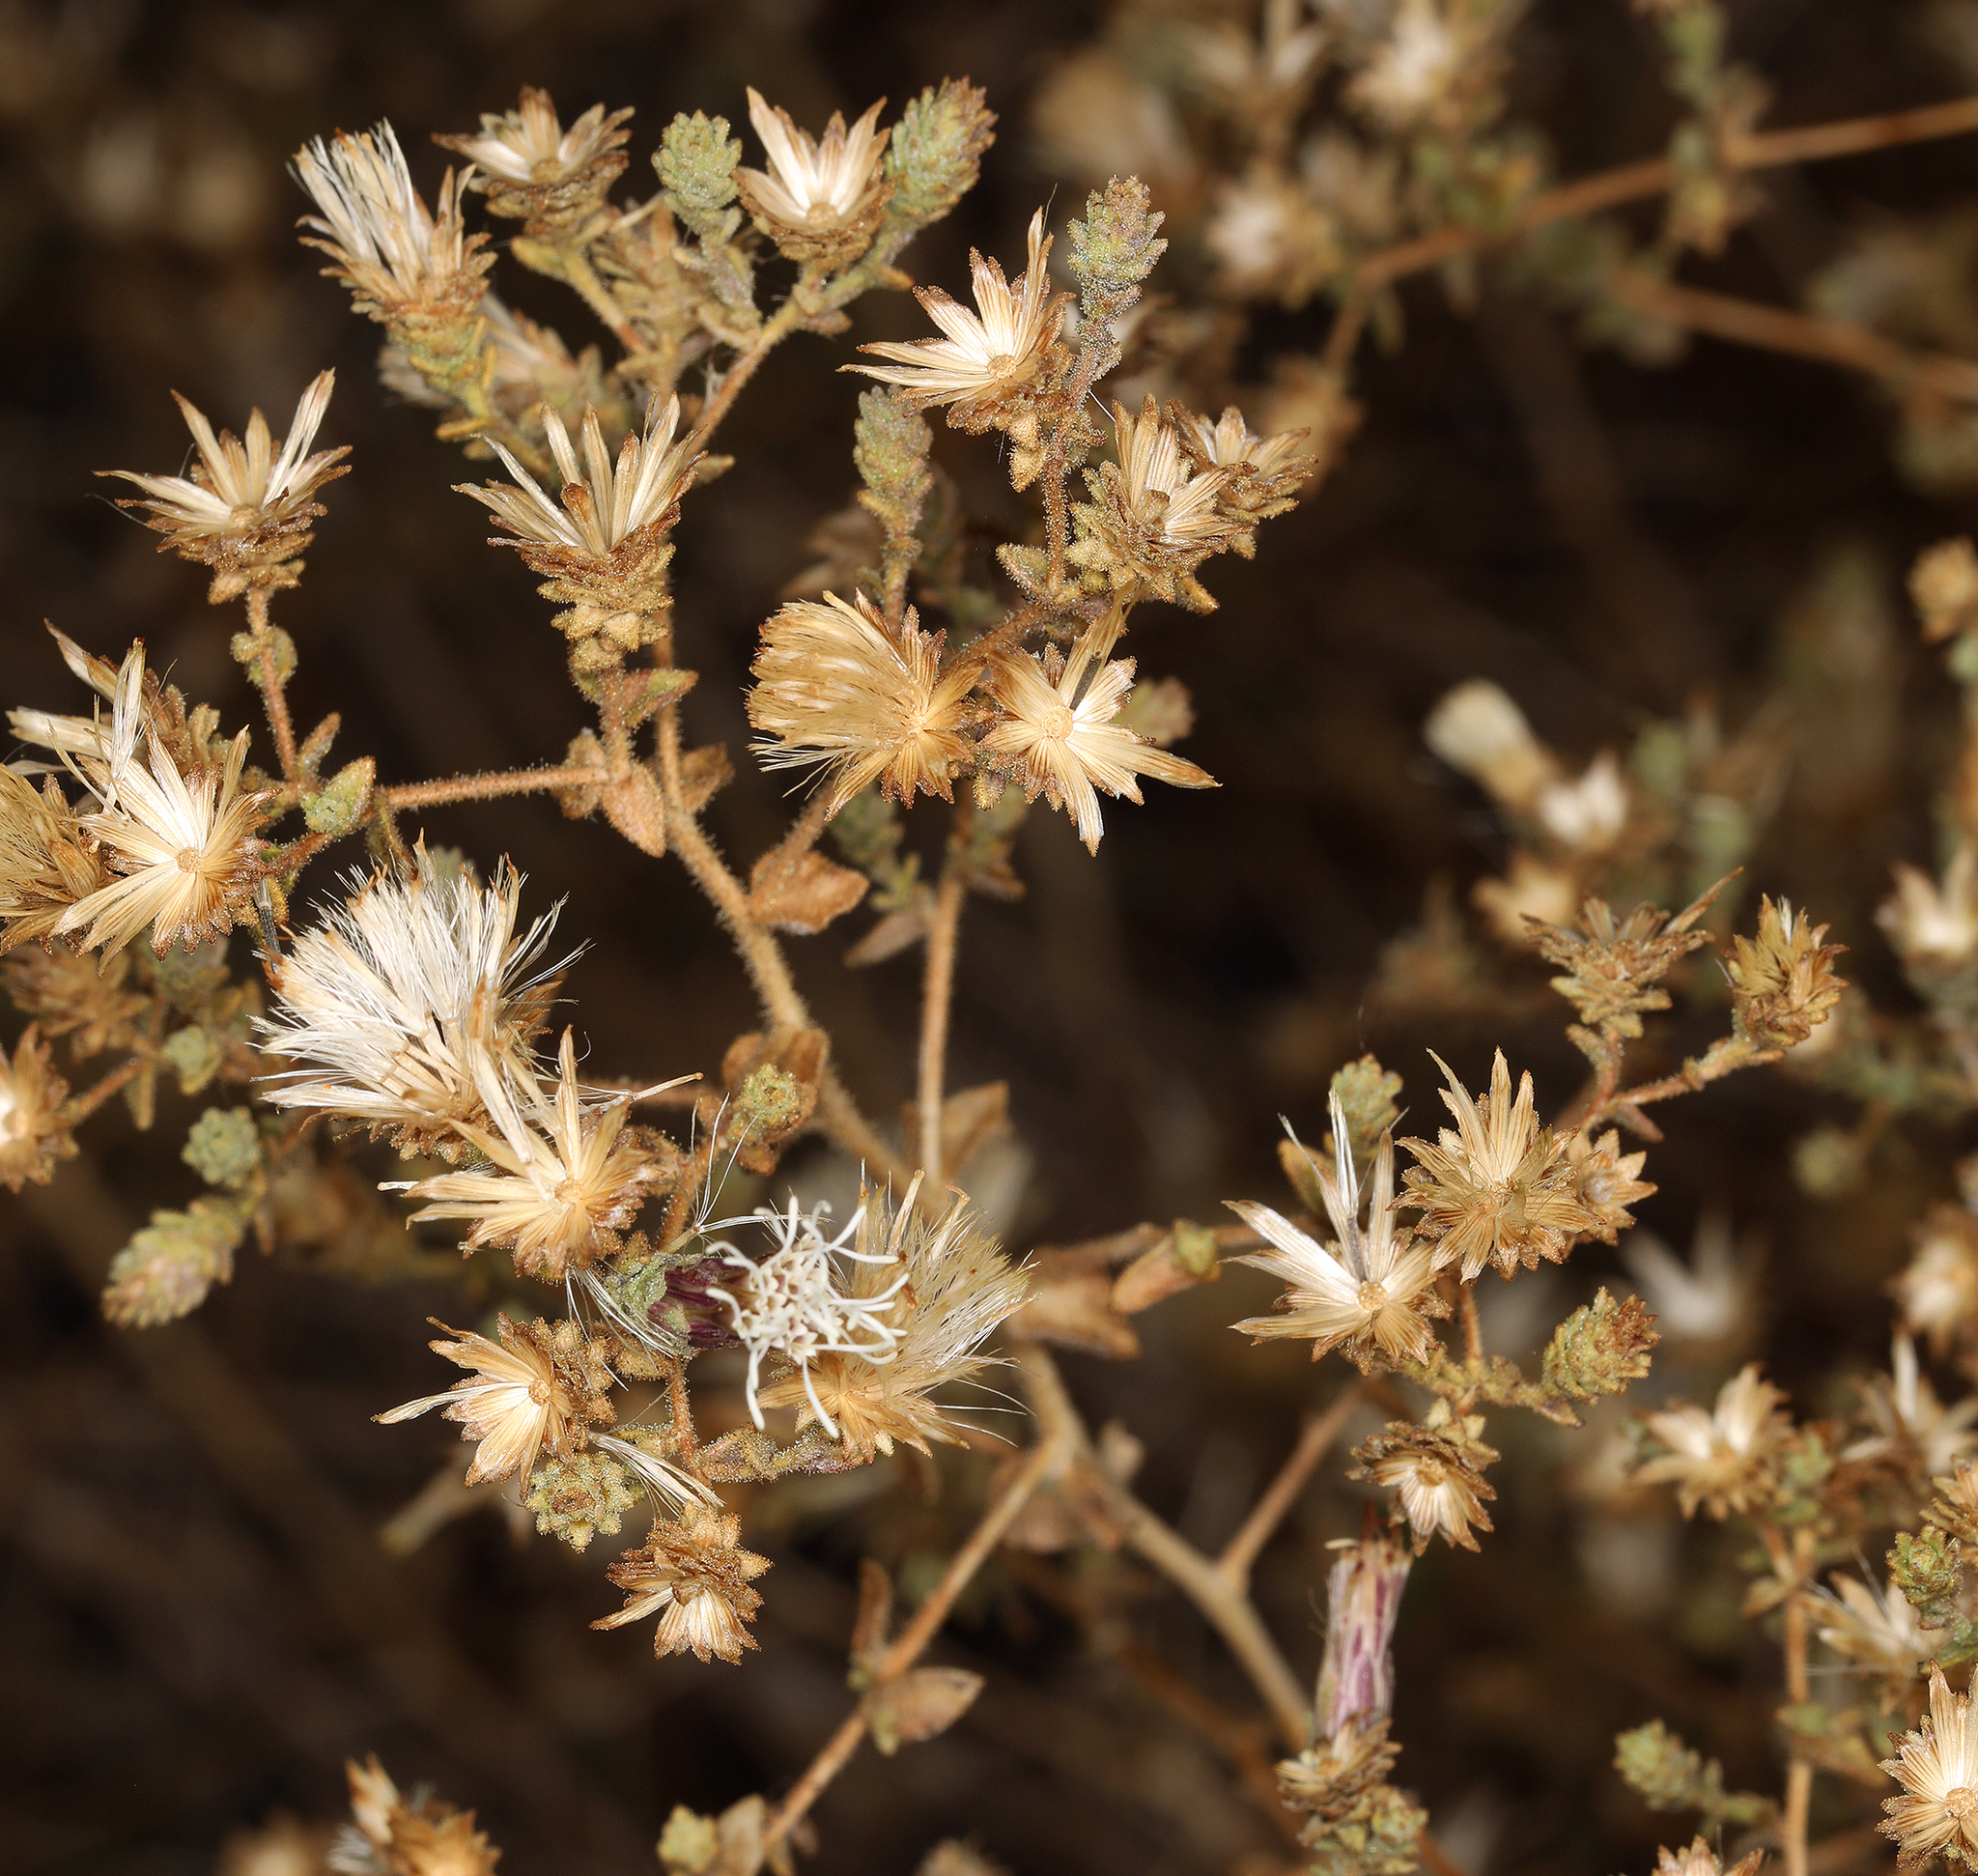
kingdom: Plantae
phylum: Tracheophyta
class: Magnoliopsida
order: Asterales
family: Asteraceae
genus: Brickellia
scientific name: Brickellia microphylla
